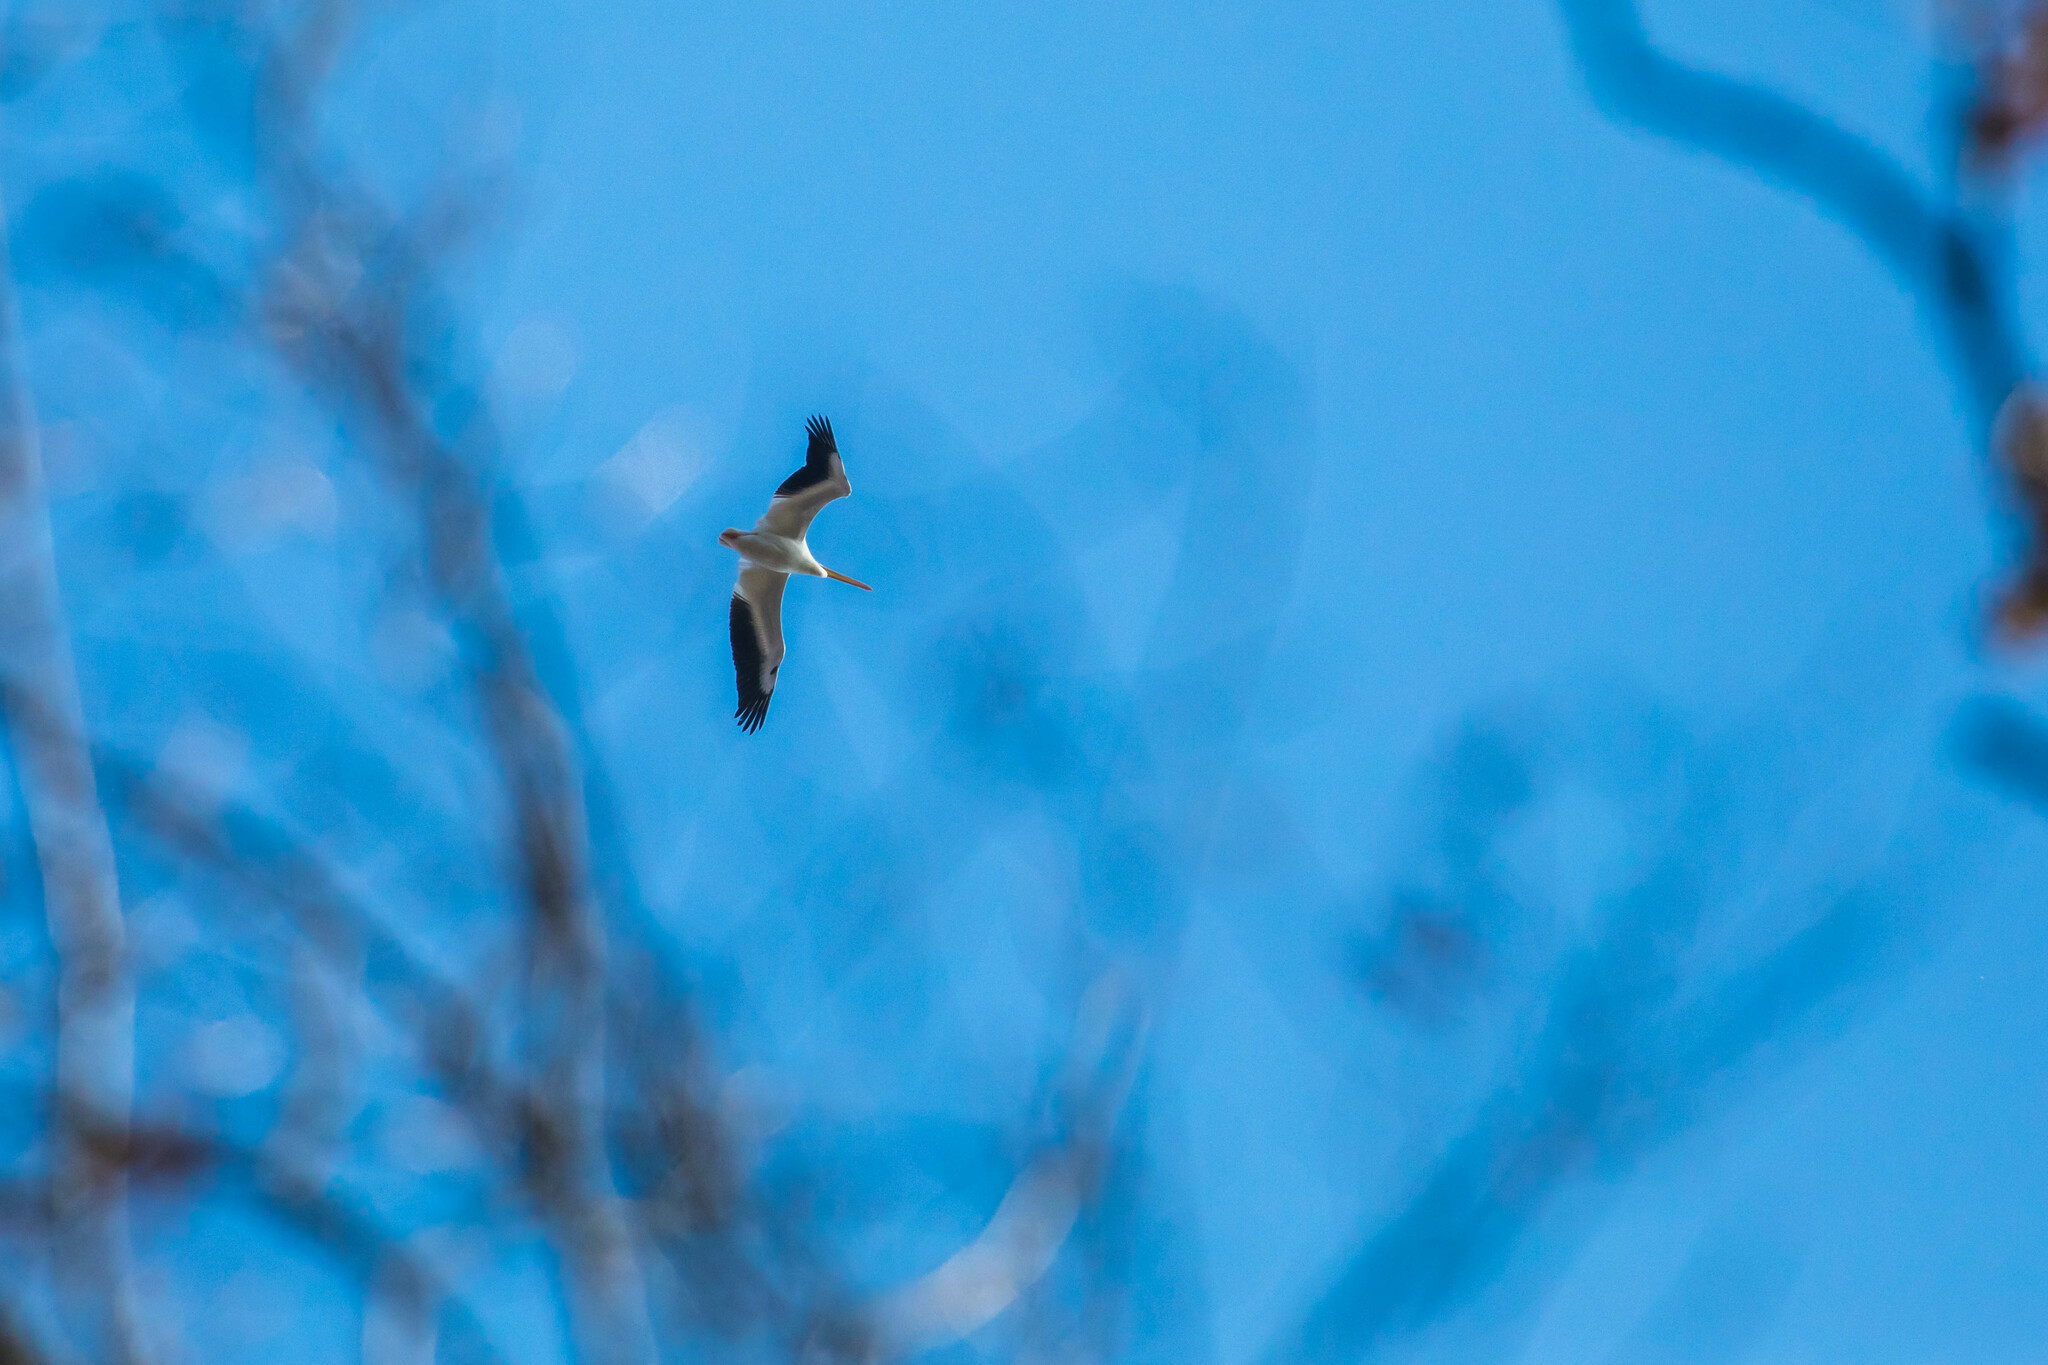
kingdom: Animalia
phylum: Chordata
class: Aves
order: Pelecaniformes
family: Pelecanidae
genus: Pelecanus
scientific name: Pelecanus erythrorhynchos
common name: American white pelican
